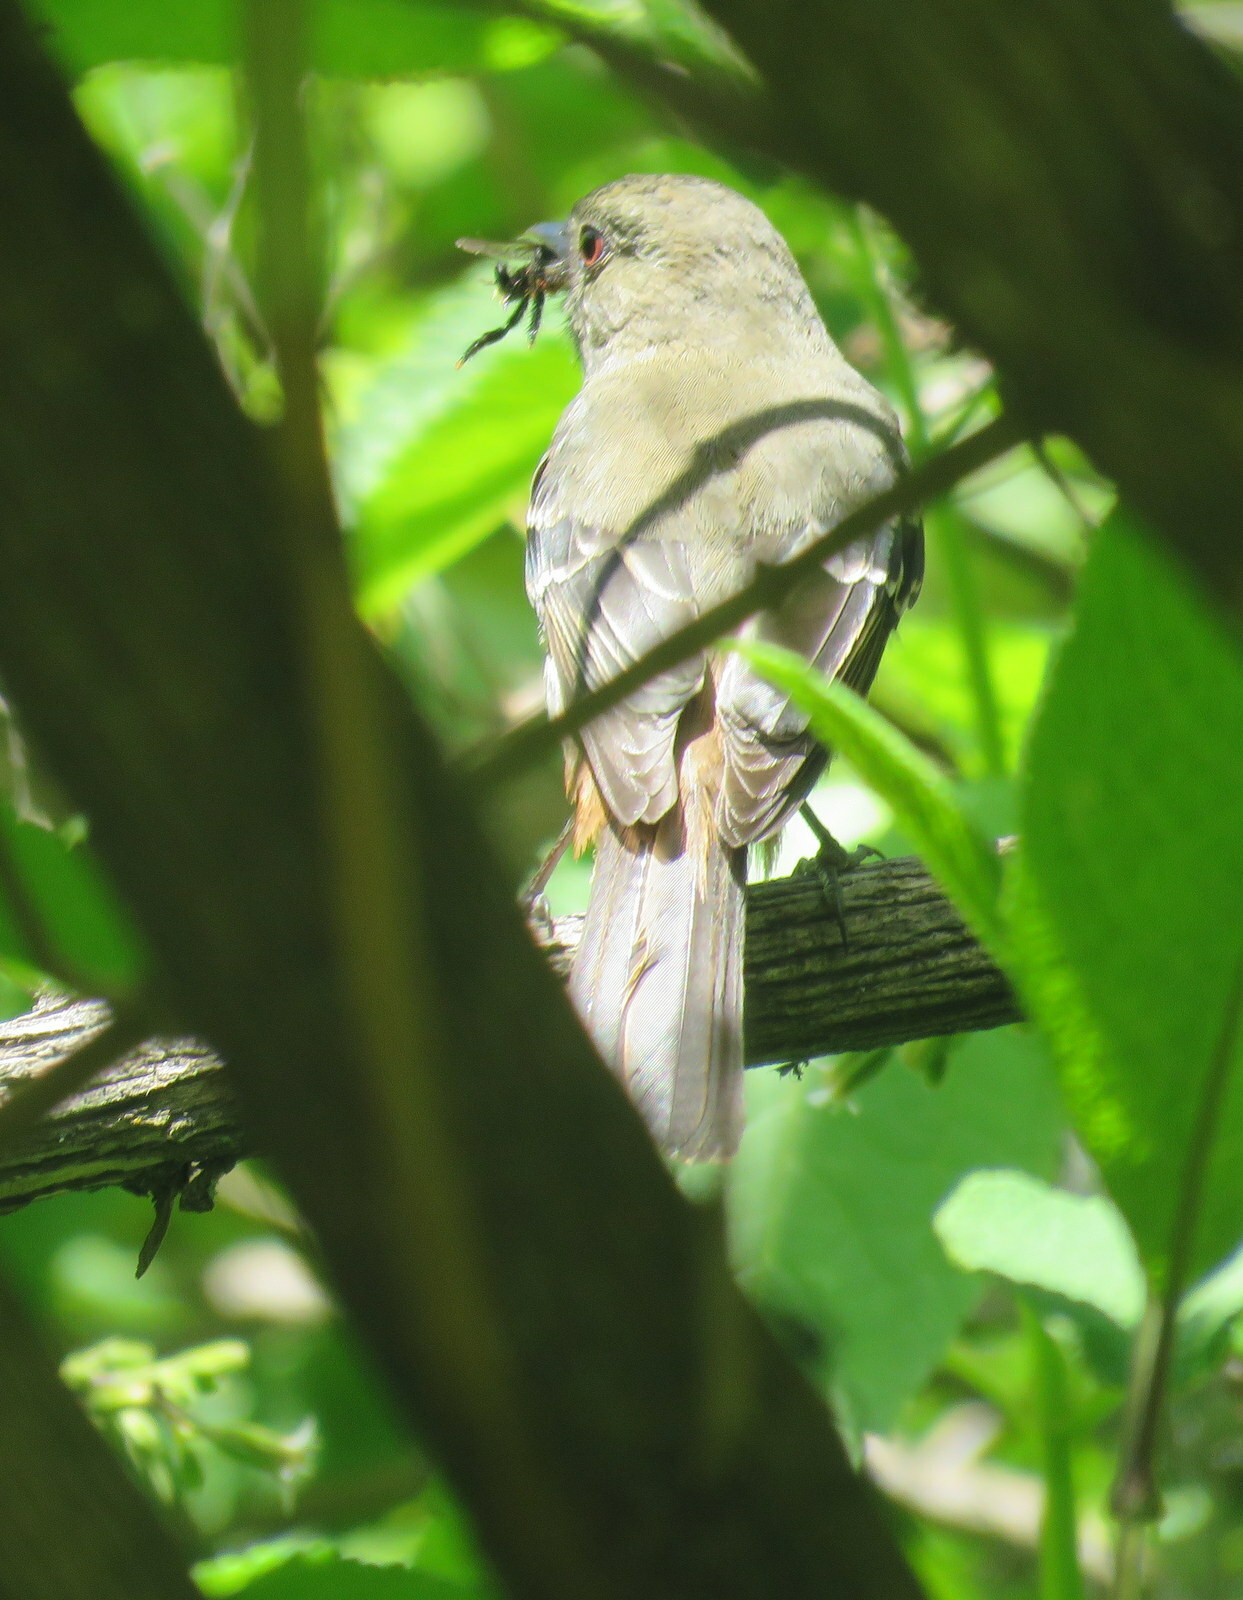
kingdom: Animalia
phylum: Chordata
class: Aves
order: Passeriformes
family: Tyrannidae
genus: Knipolegus
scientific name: Knipolegus cabanisi
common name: Plumbeous tyrant
